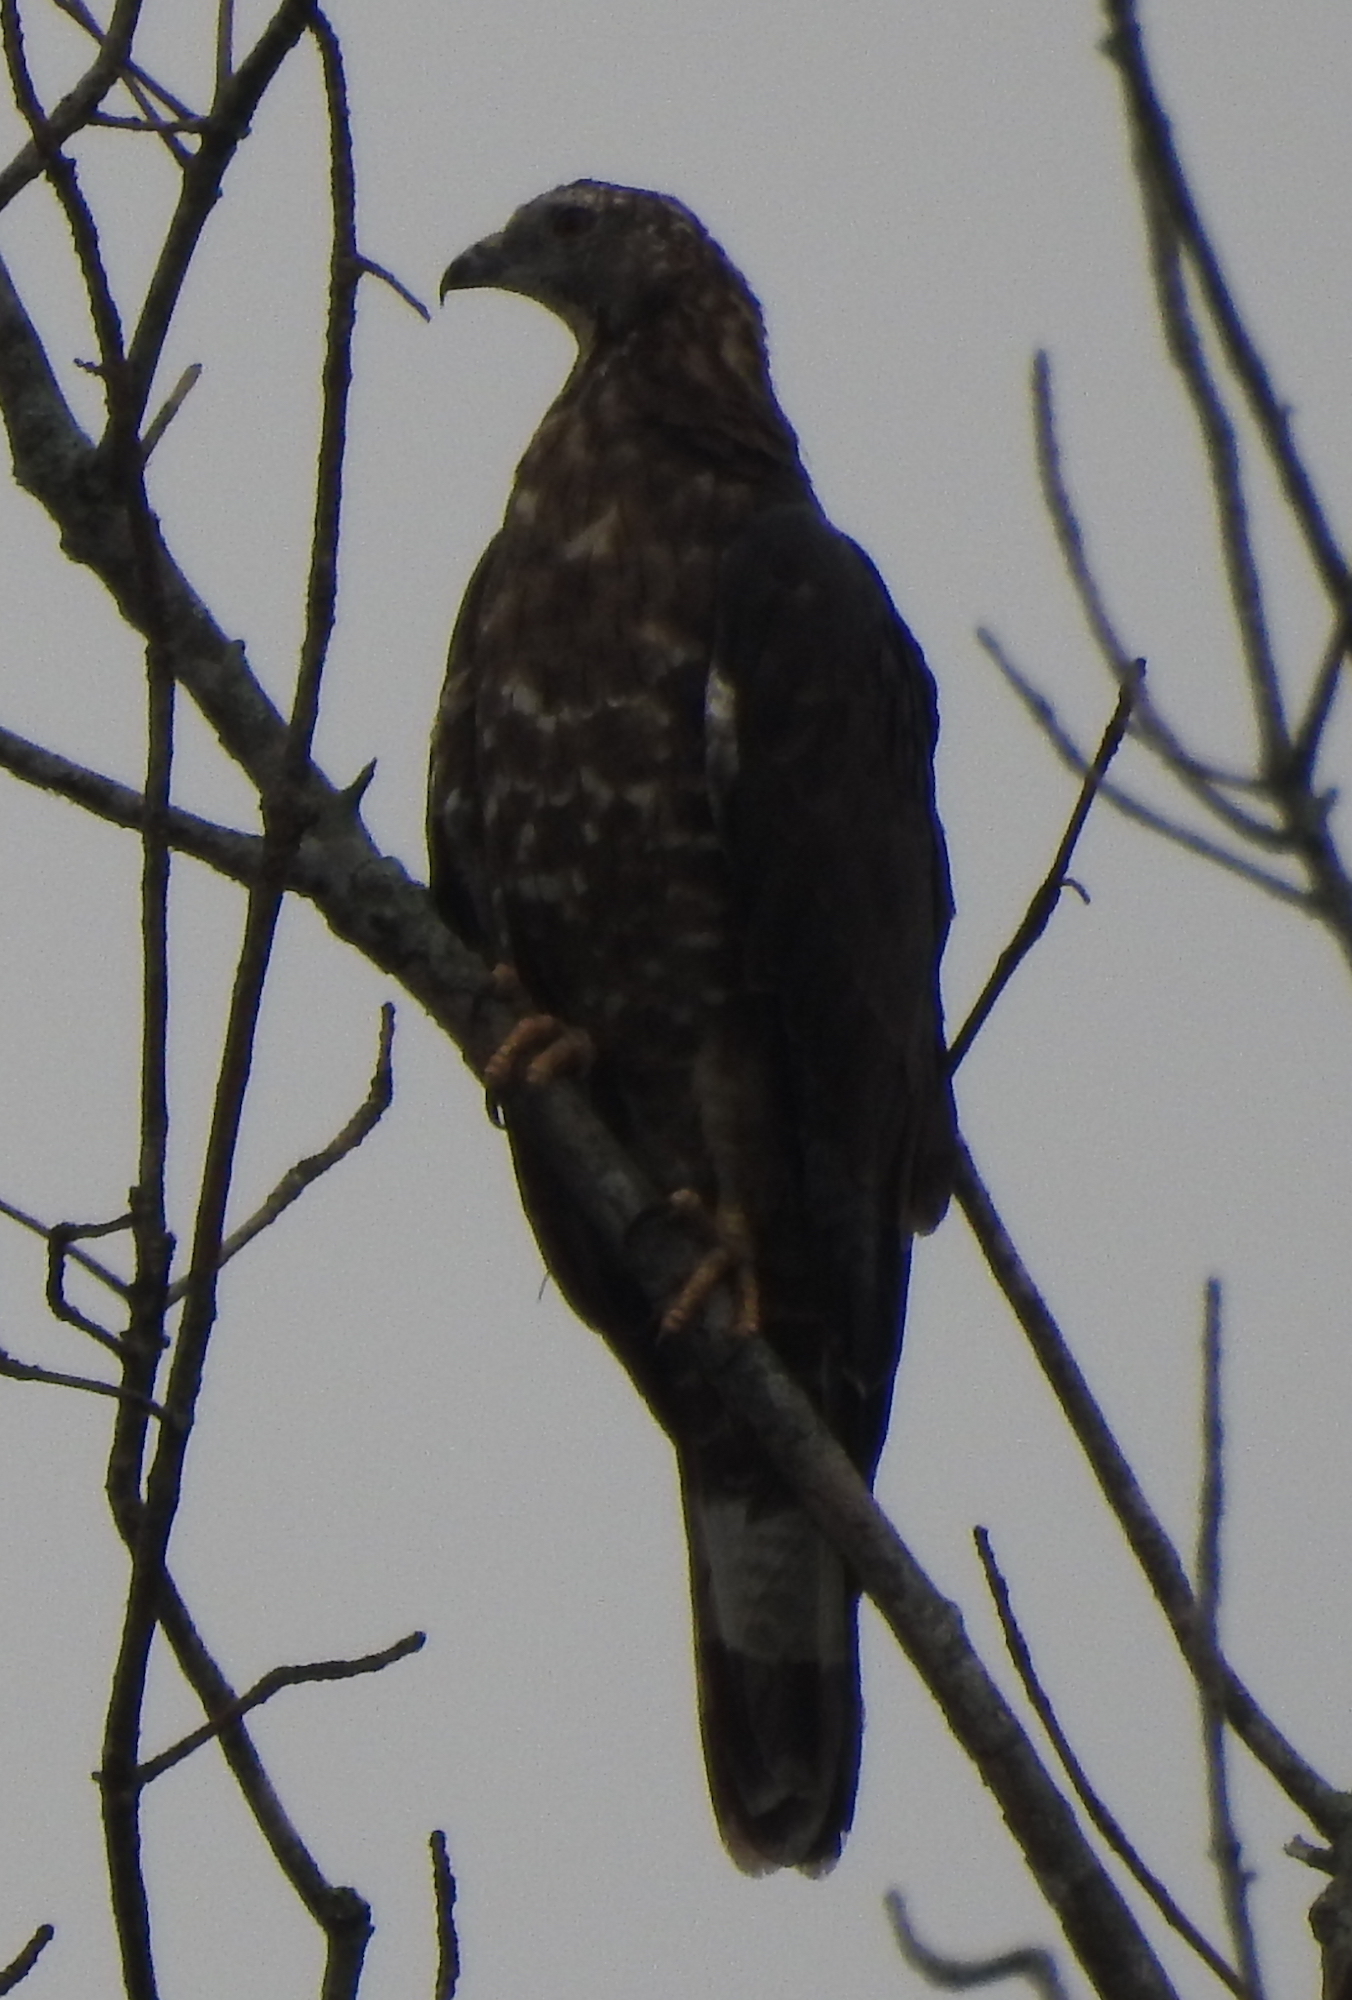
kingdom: Animalia
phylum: Chordata
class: Aves
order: Accipitriformes
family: Accipitridae
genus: Pernis
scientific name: Pernis ptilorhynchus
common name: Crested honey buzzard
